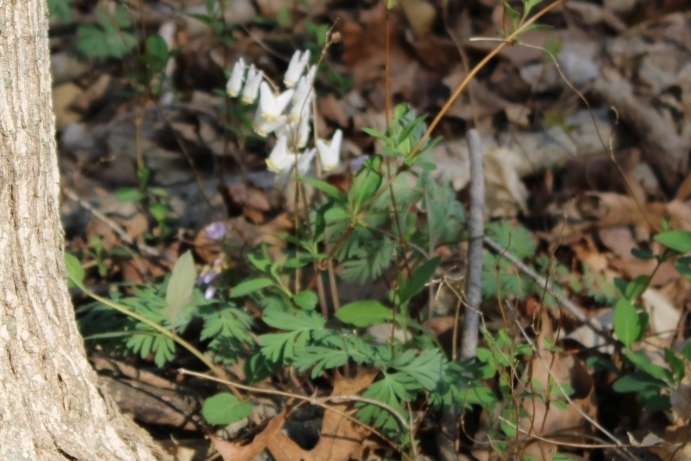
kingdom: Plantae
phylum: Tracheophyta
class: Magnoliopsida
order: Ranunculales
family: Papaveraceae
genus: Dicentra
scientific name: Dicentra cucullaria
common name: Dutchman's breeches
